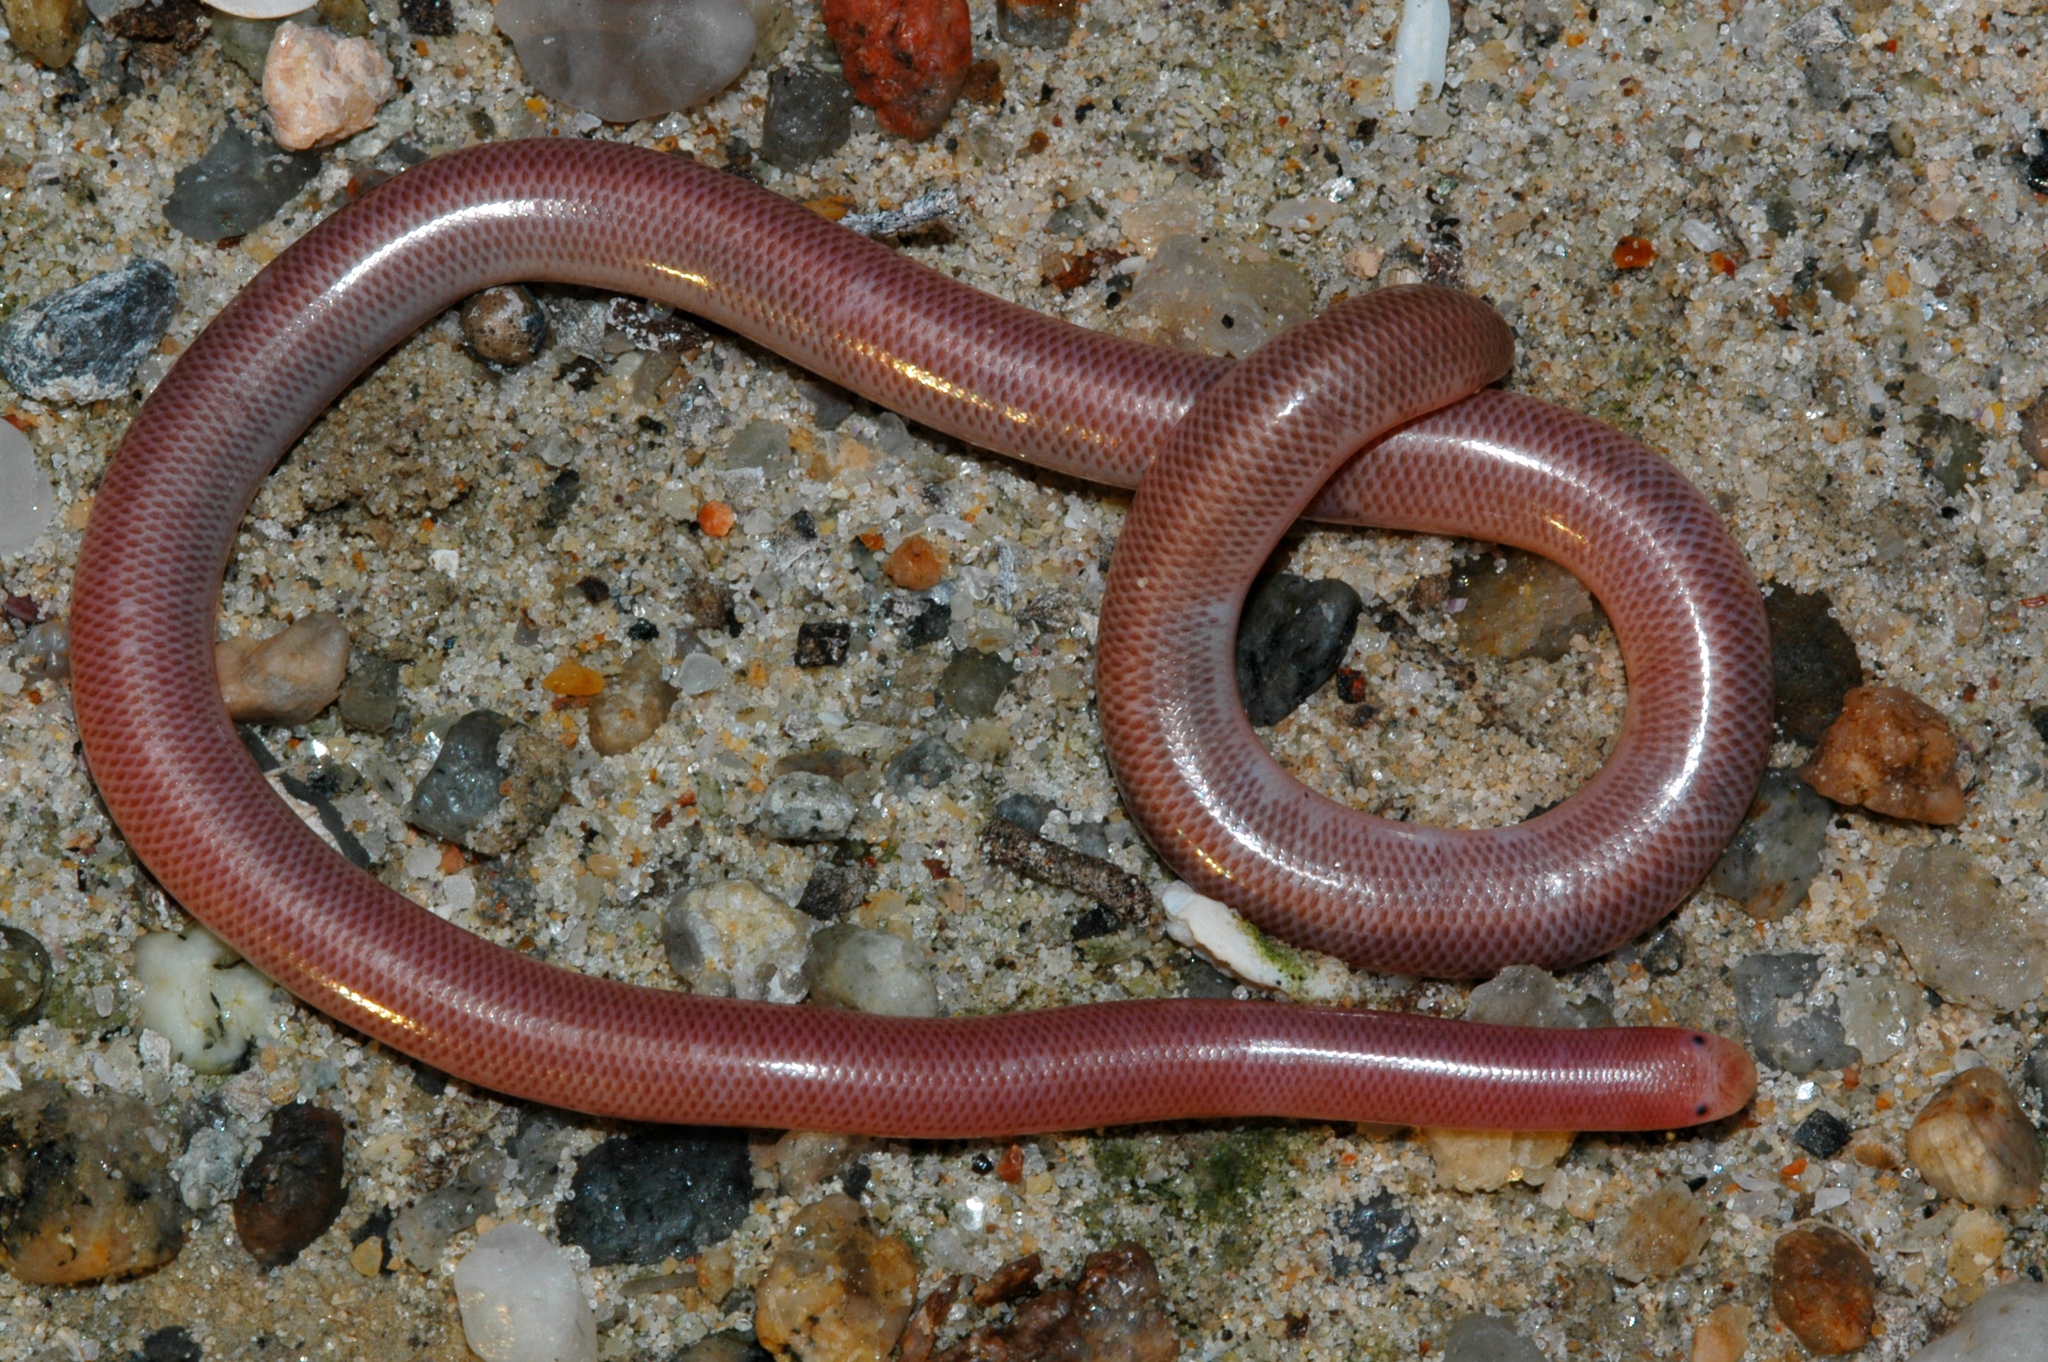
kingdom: Animalia
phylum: Chordata
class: Squamata
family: Typhlopidae
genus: Rhinotyphlops
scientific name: Rhinotyphlops lalandei
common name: Delalande's beaked blind snake
